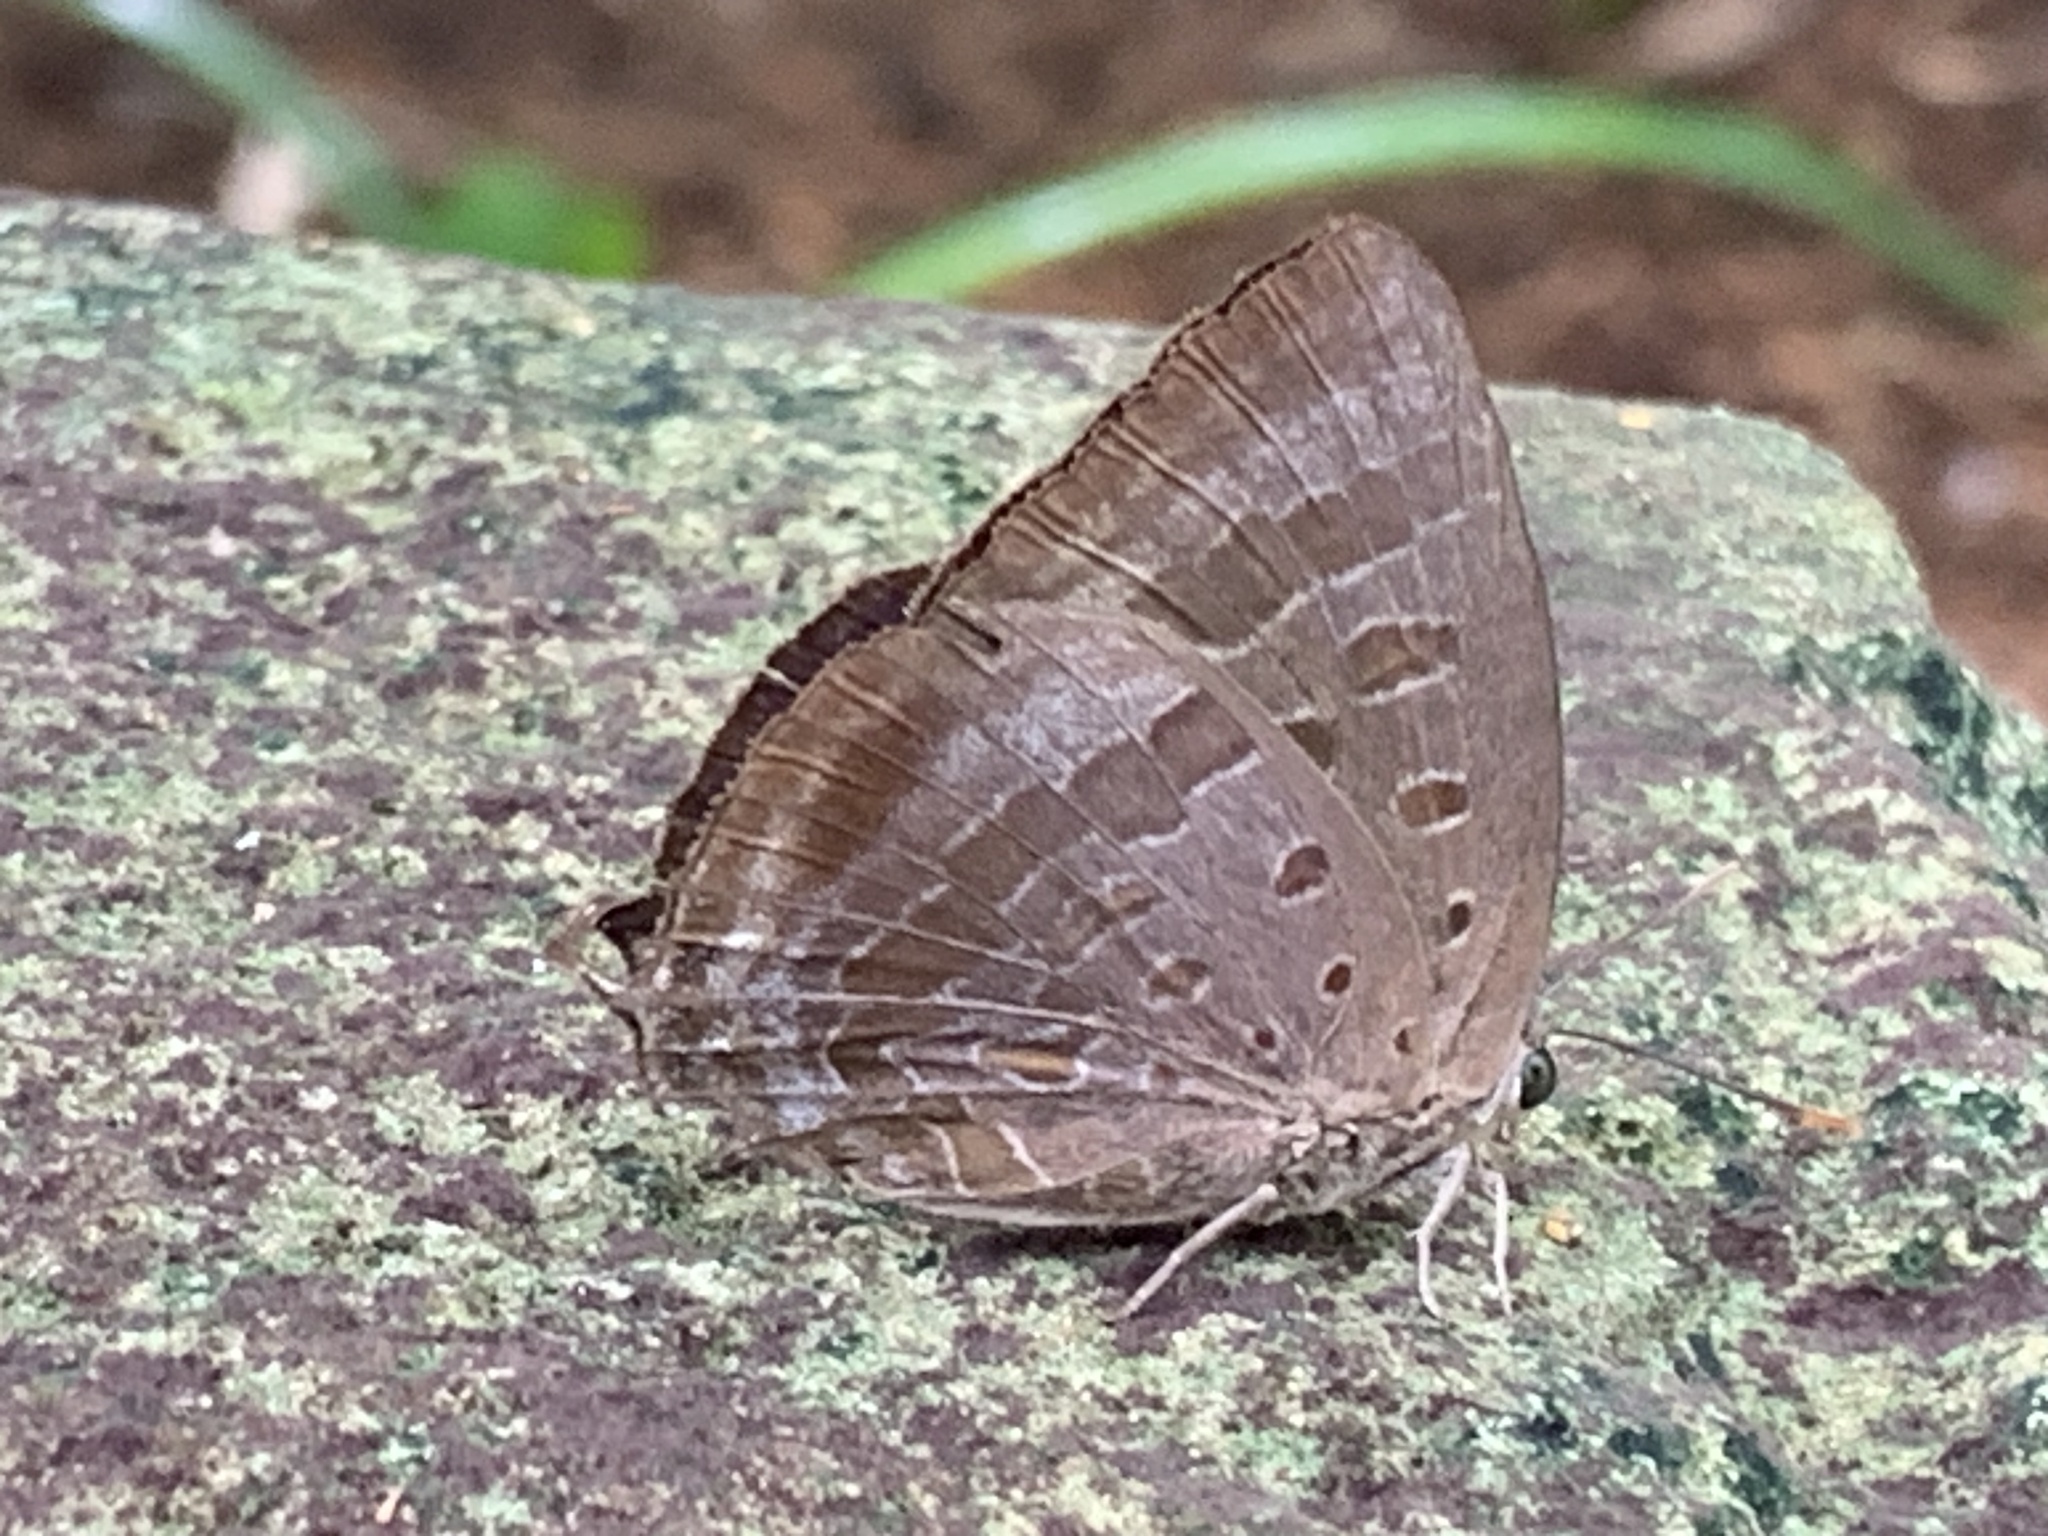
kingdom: Animalia
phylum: Arthropoda
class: Insecta
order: Lepidoptera
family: Lycaenidae
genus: Arhopala
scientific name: Arhopala
